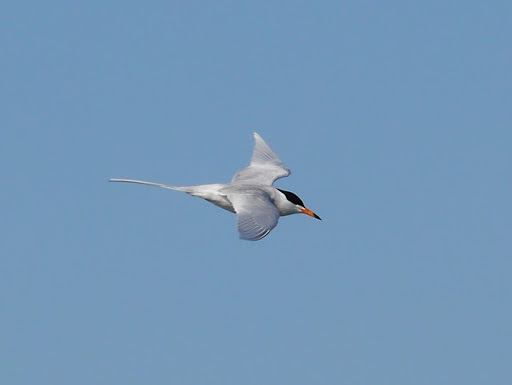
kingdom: Animalia
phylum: Chordata
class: Aves
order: Charadriiformes
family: Laridae
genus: Sterna
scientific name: Sterna forsteri
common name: Forster's tern
